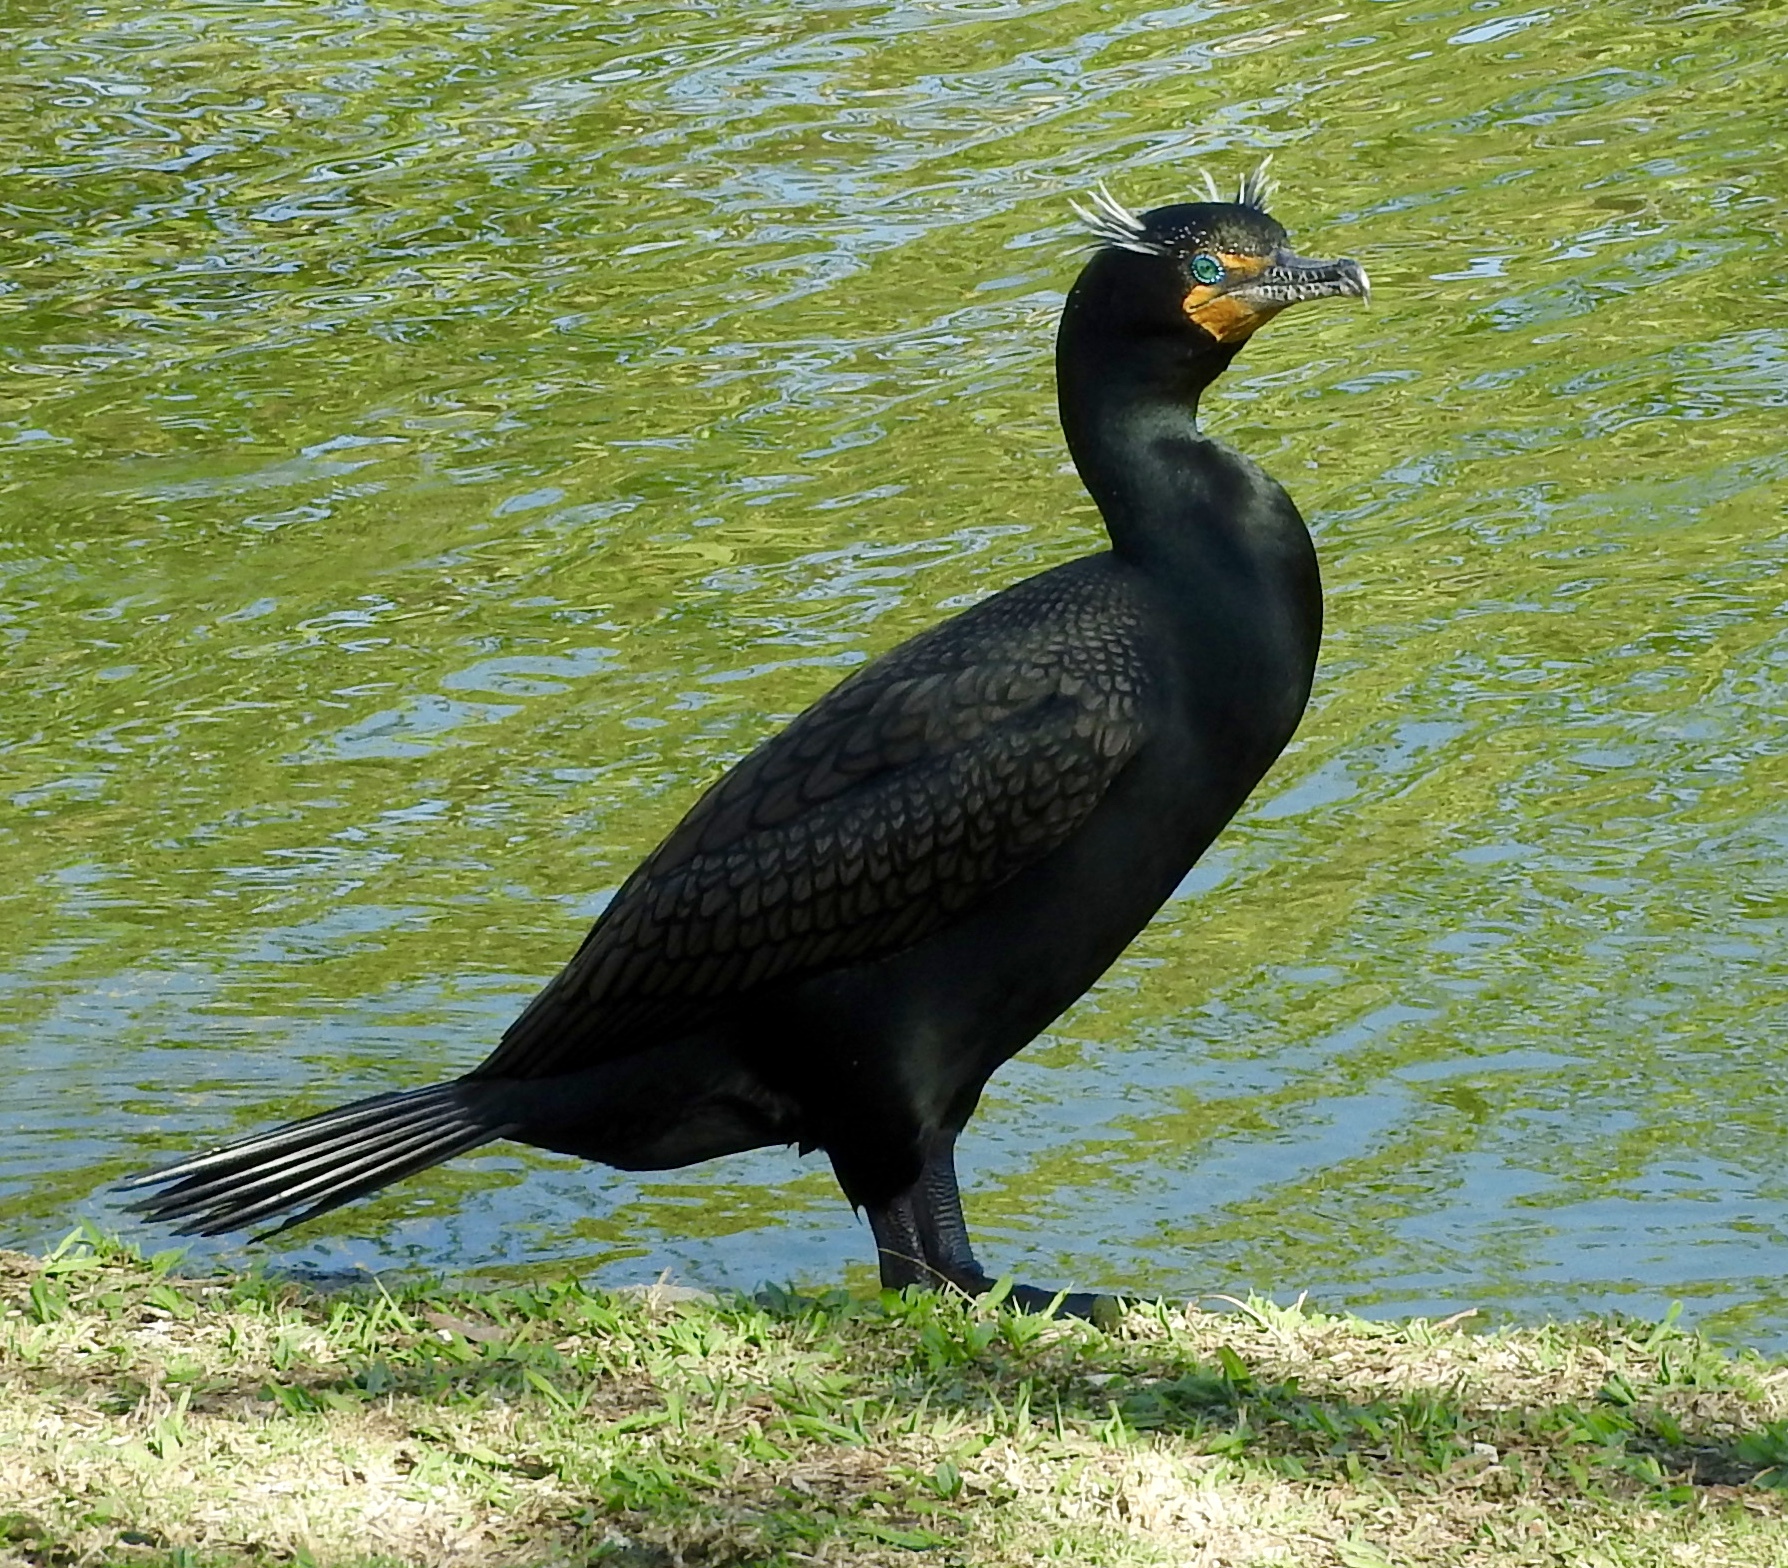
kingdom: Animalia
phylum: Chordata
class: Aves
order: Suliformes
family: Phalacrocoracidae
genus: Phalacrocorax
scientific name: Phalacrocorax auritus
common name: Double-crested cormorant
